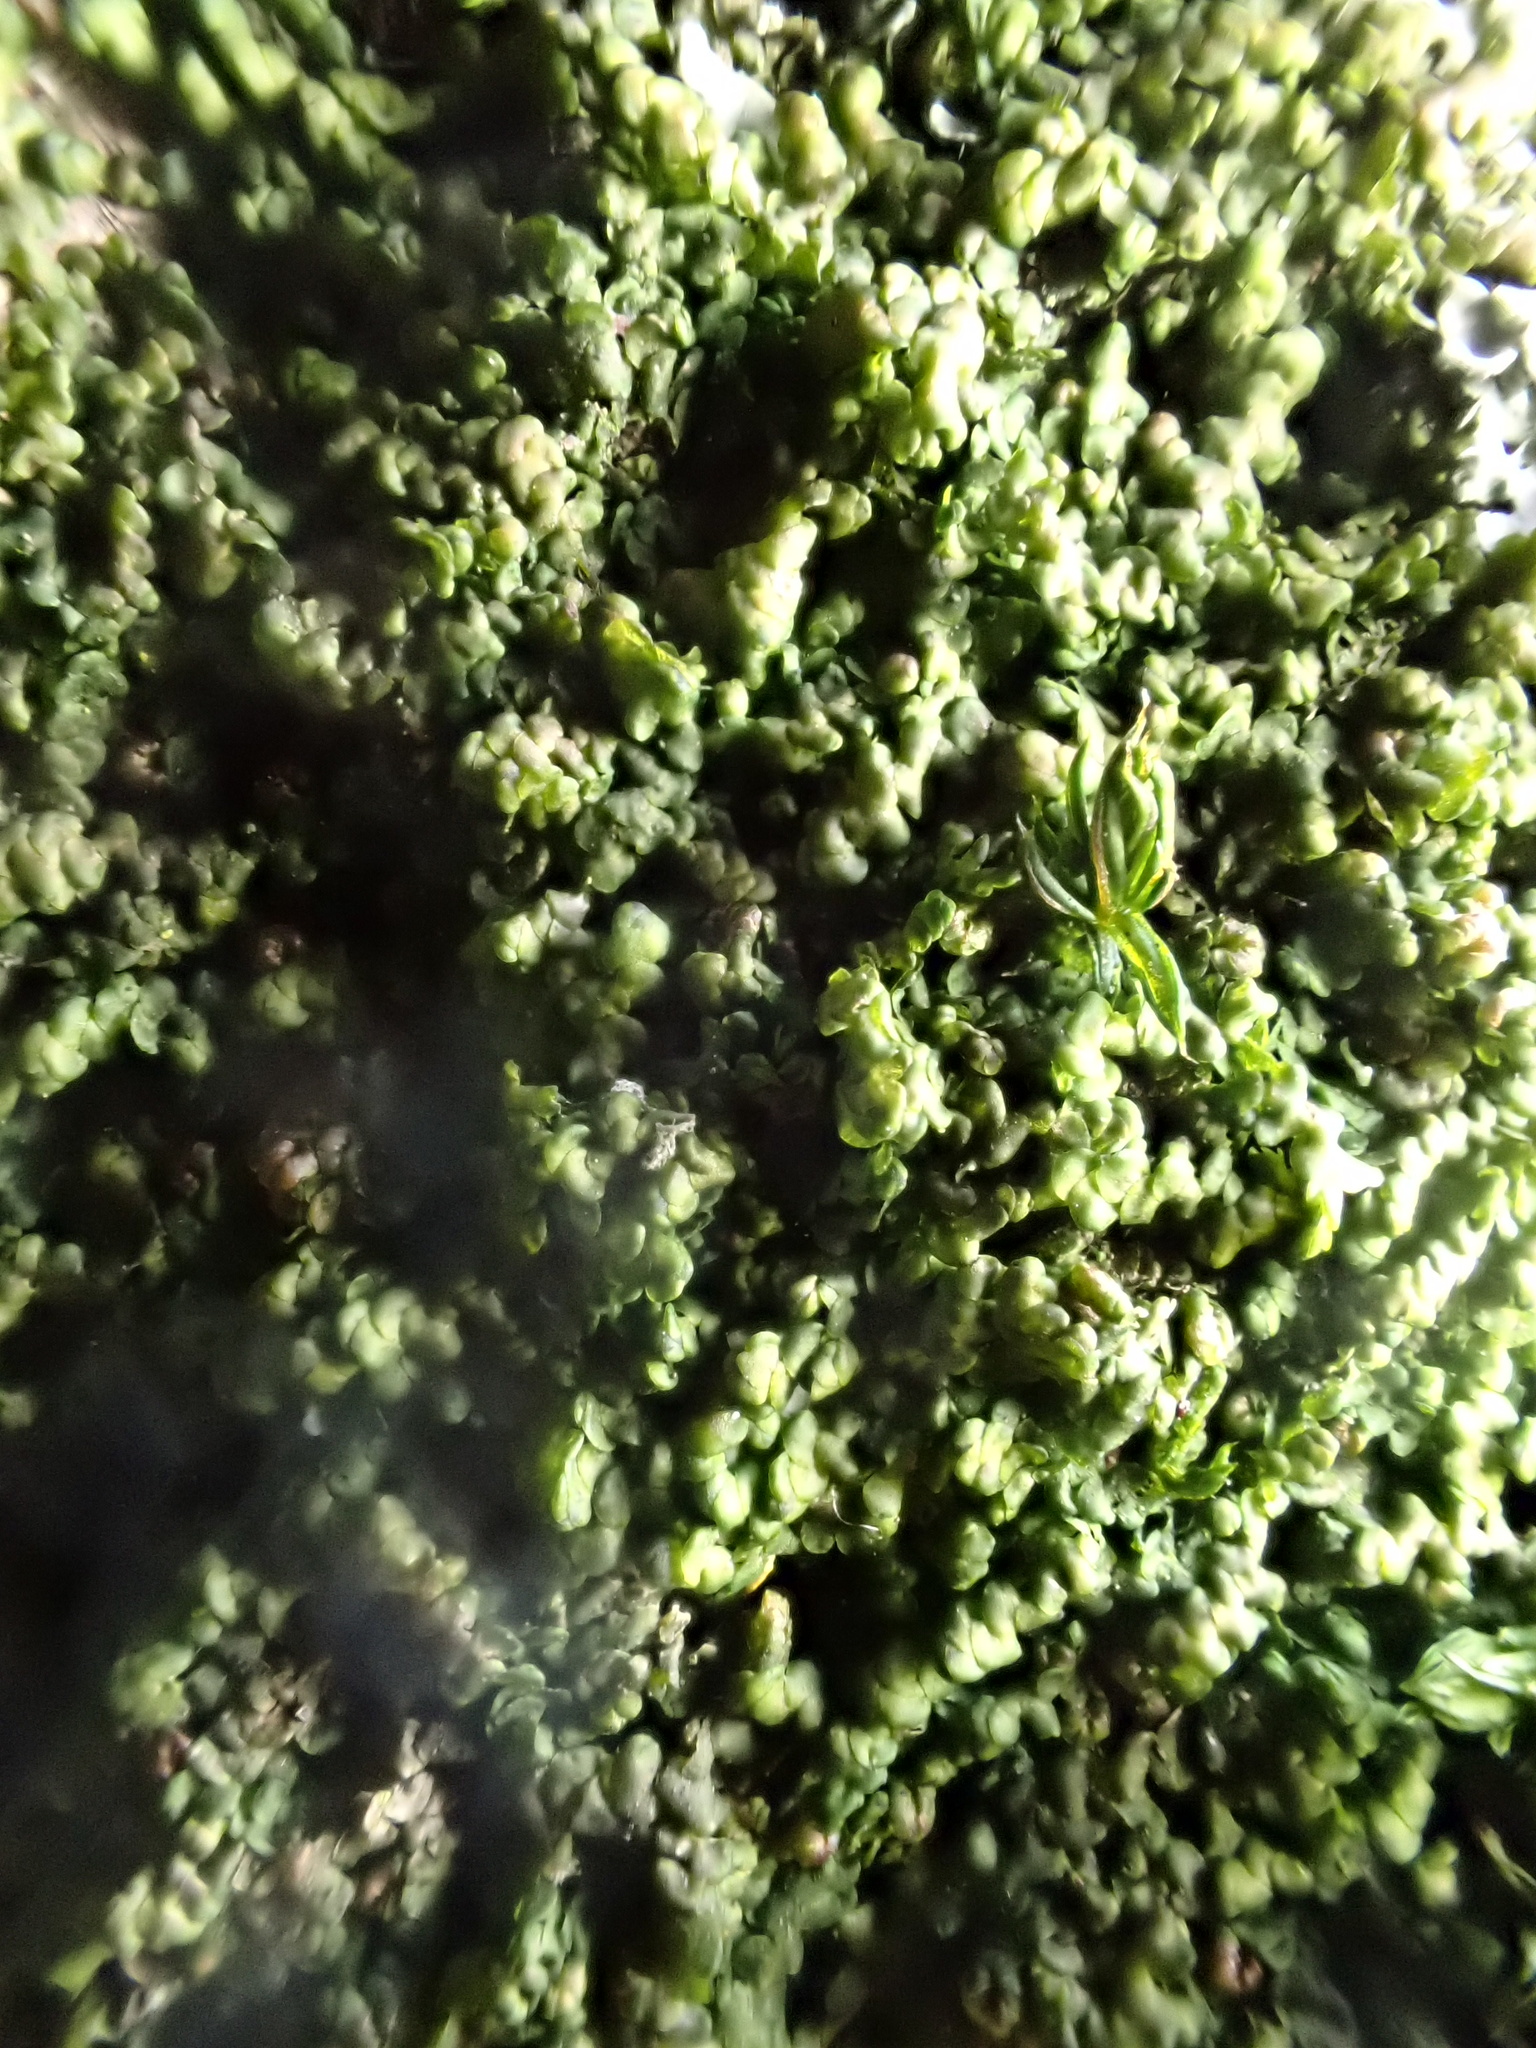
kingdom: Plantae
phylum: Marchantiophyta
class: Jungermanniopsida
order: Porellales
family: Frullaniaceae
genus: Frullania
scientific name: Frullania dilatata
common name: Dilated scalewort
